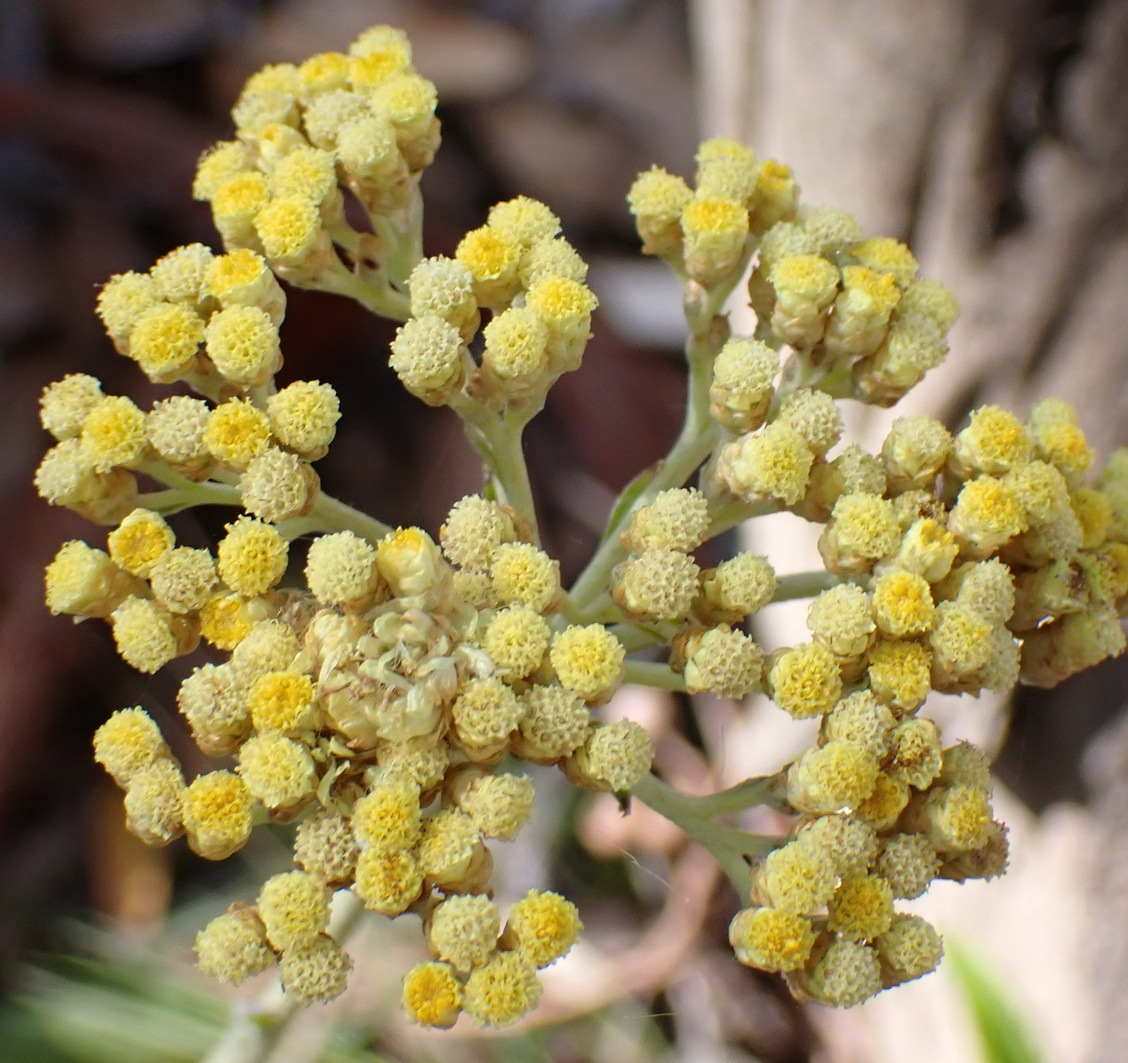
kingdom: Plantae
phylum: Tracheophyta
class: Magnoliopsida
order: Asterales
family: Asteraceae
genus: Helichrysum
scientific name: Helichrysum nudifolium
